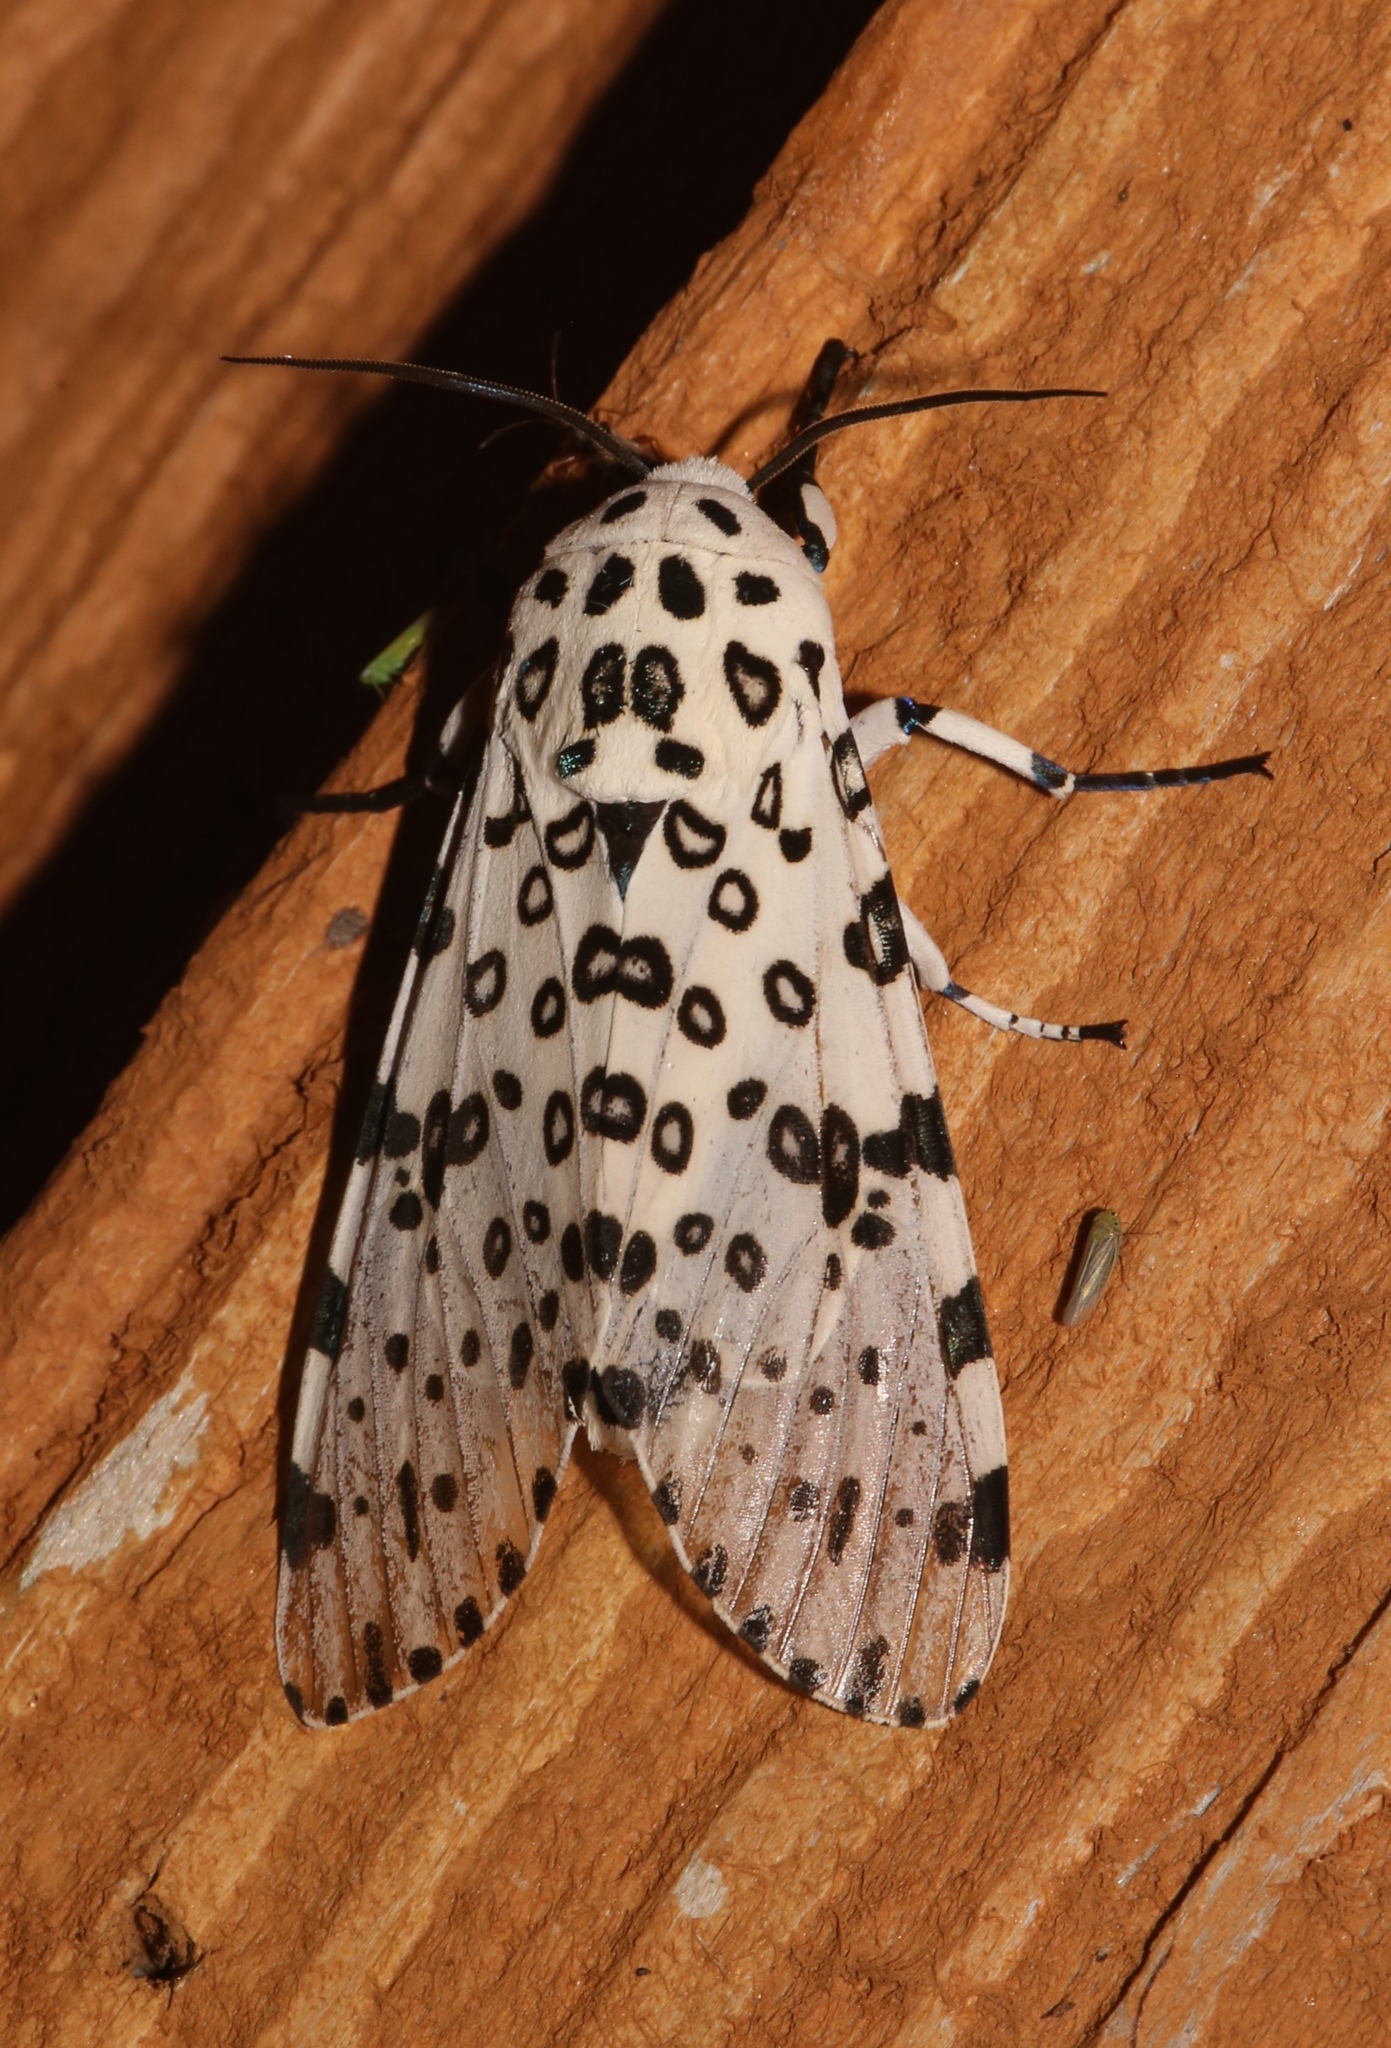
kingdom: Animalia
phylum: Arthropoda
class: Insecta
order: Lepidoptera
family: Erebidae
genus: Hypercompe
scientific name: Hypercompe scribonia
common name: Giant leopard moth
